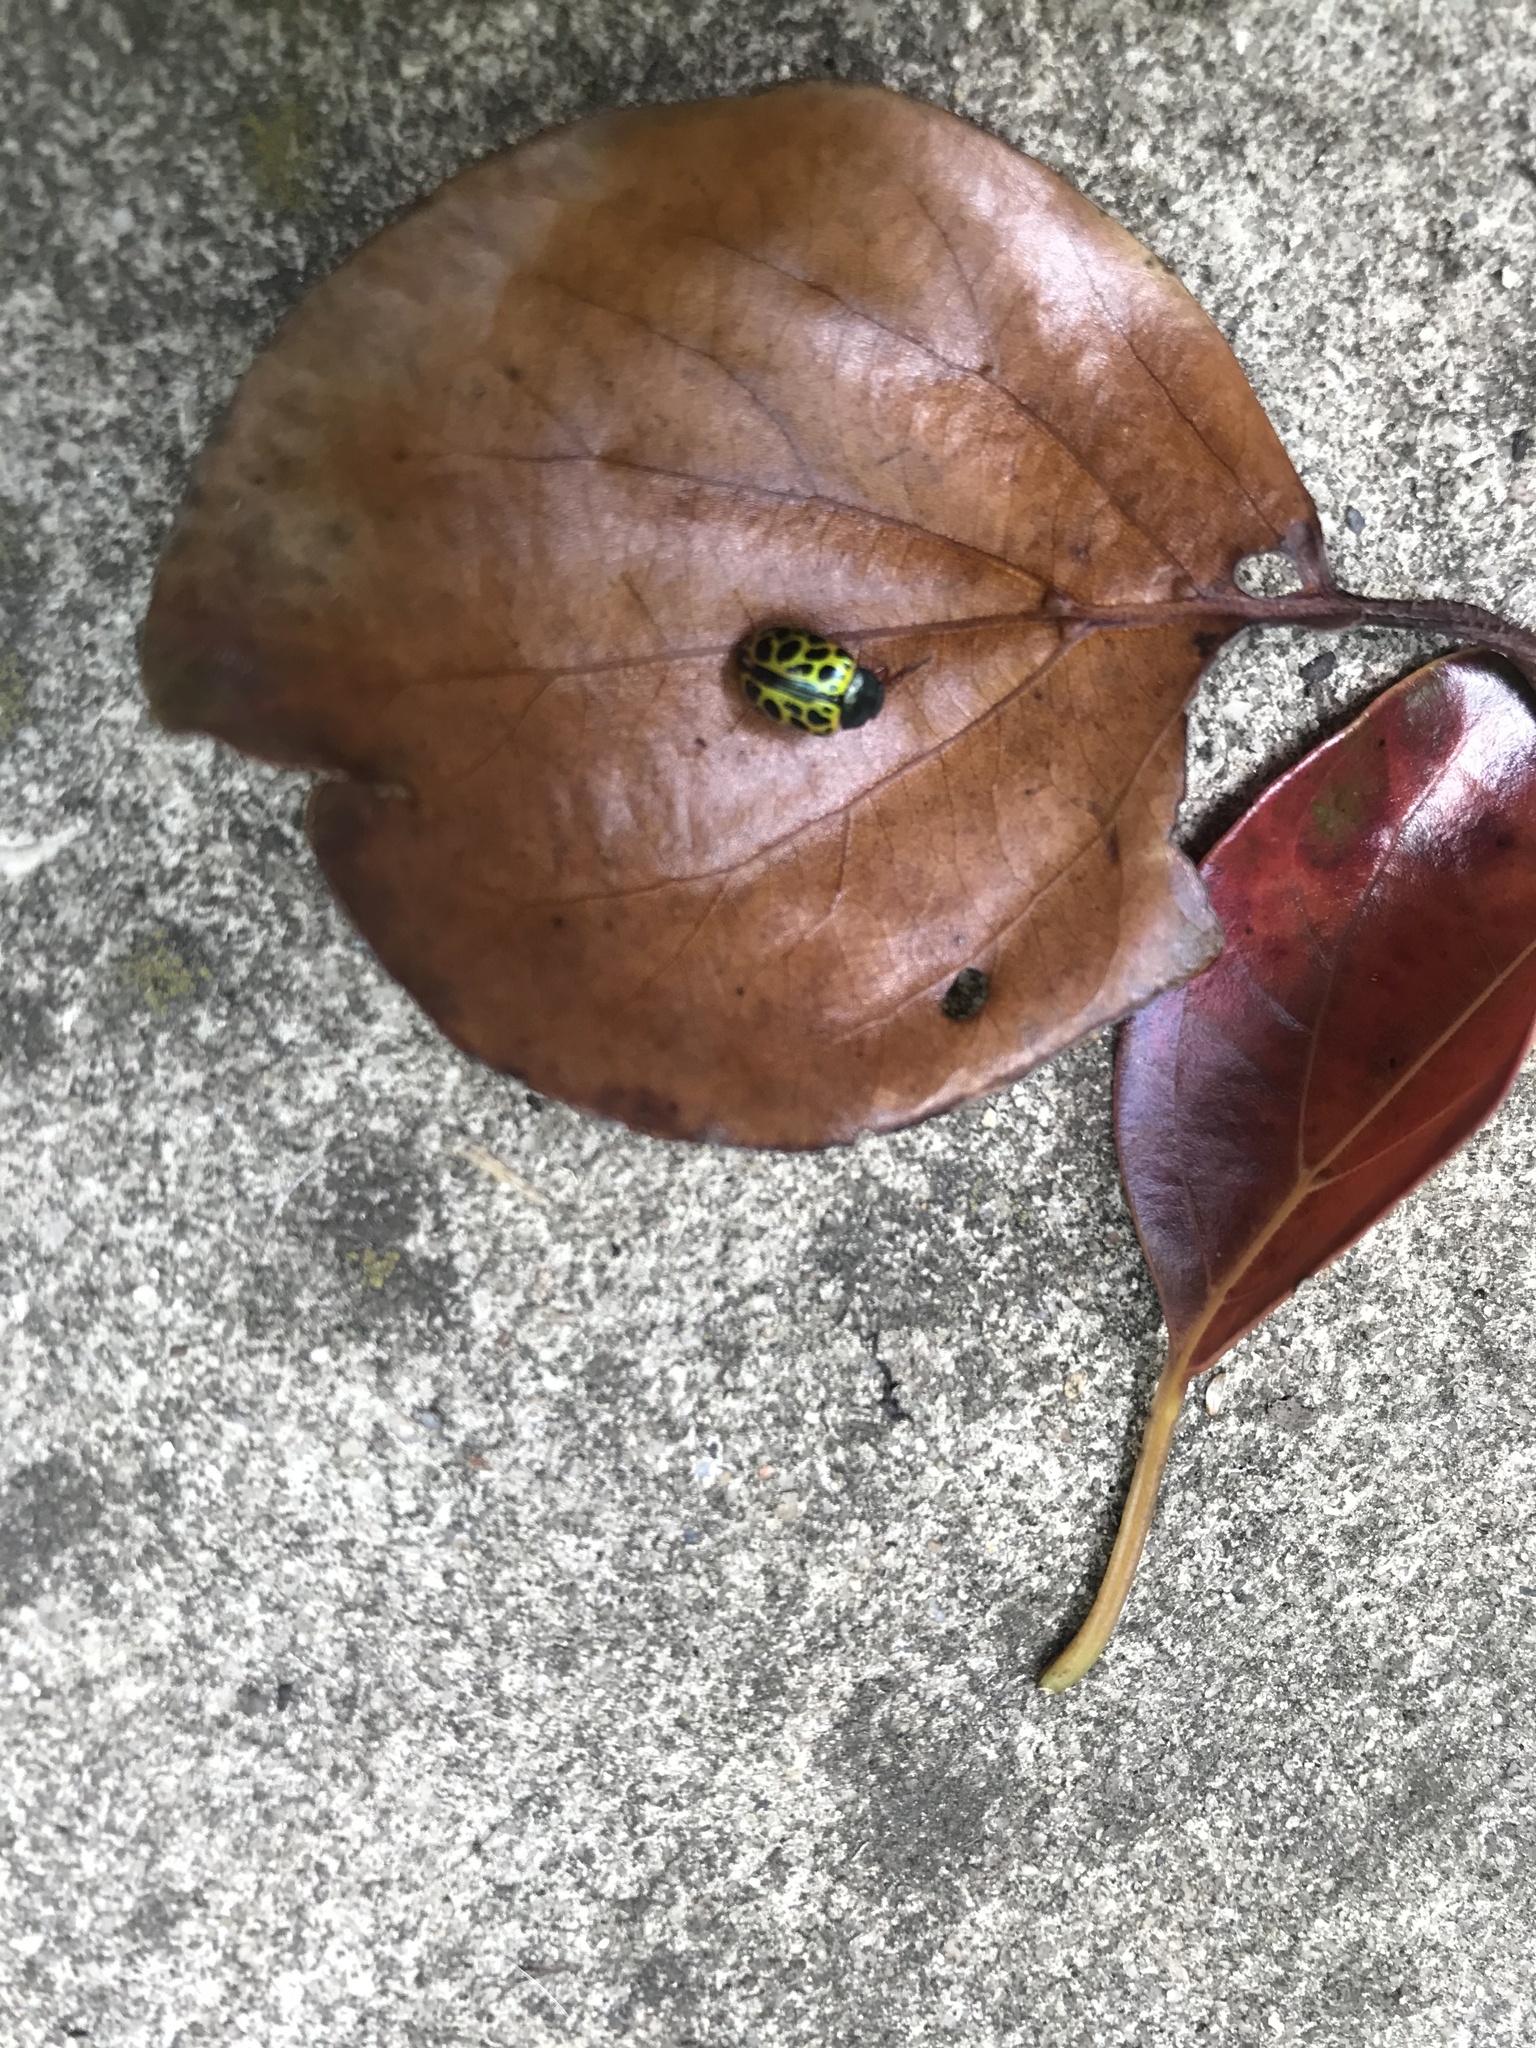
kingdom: Animalia
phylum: Arthropoda
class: Insecta
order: Coleoptera
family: Chrysomelidae
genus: Calligrapha
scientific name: Calligrapha polyspila
